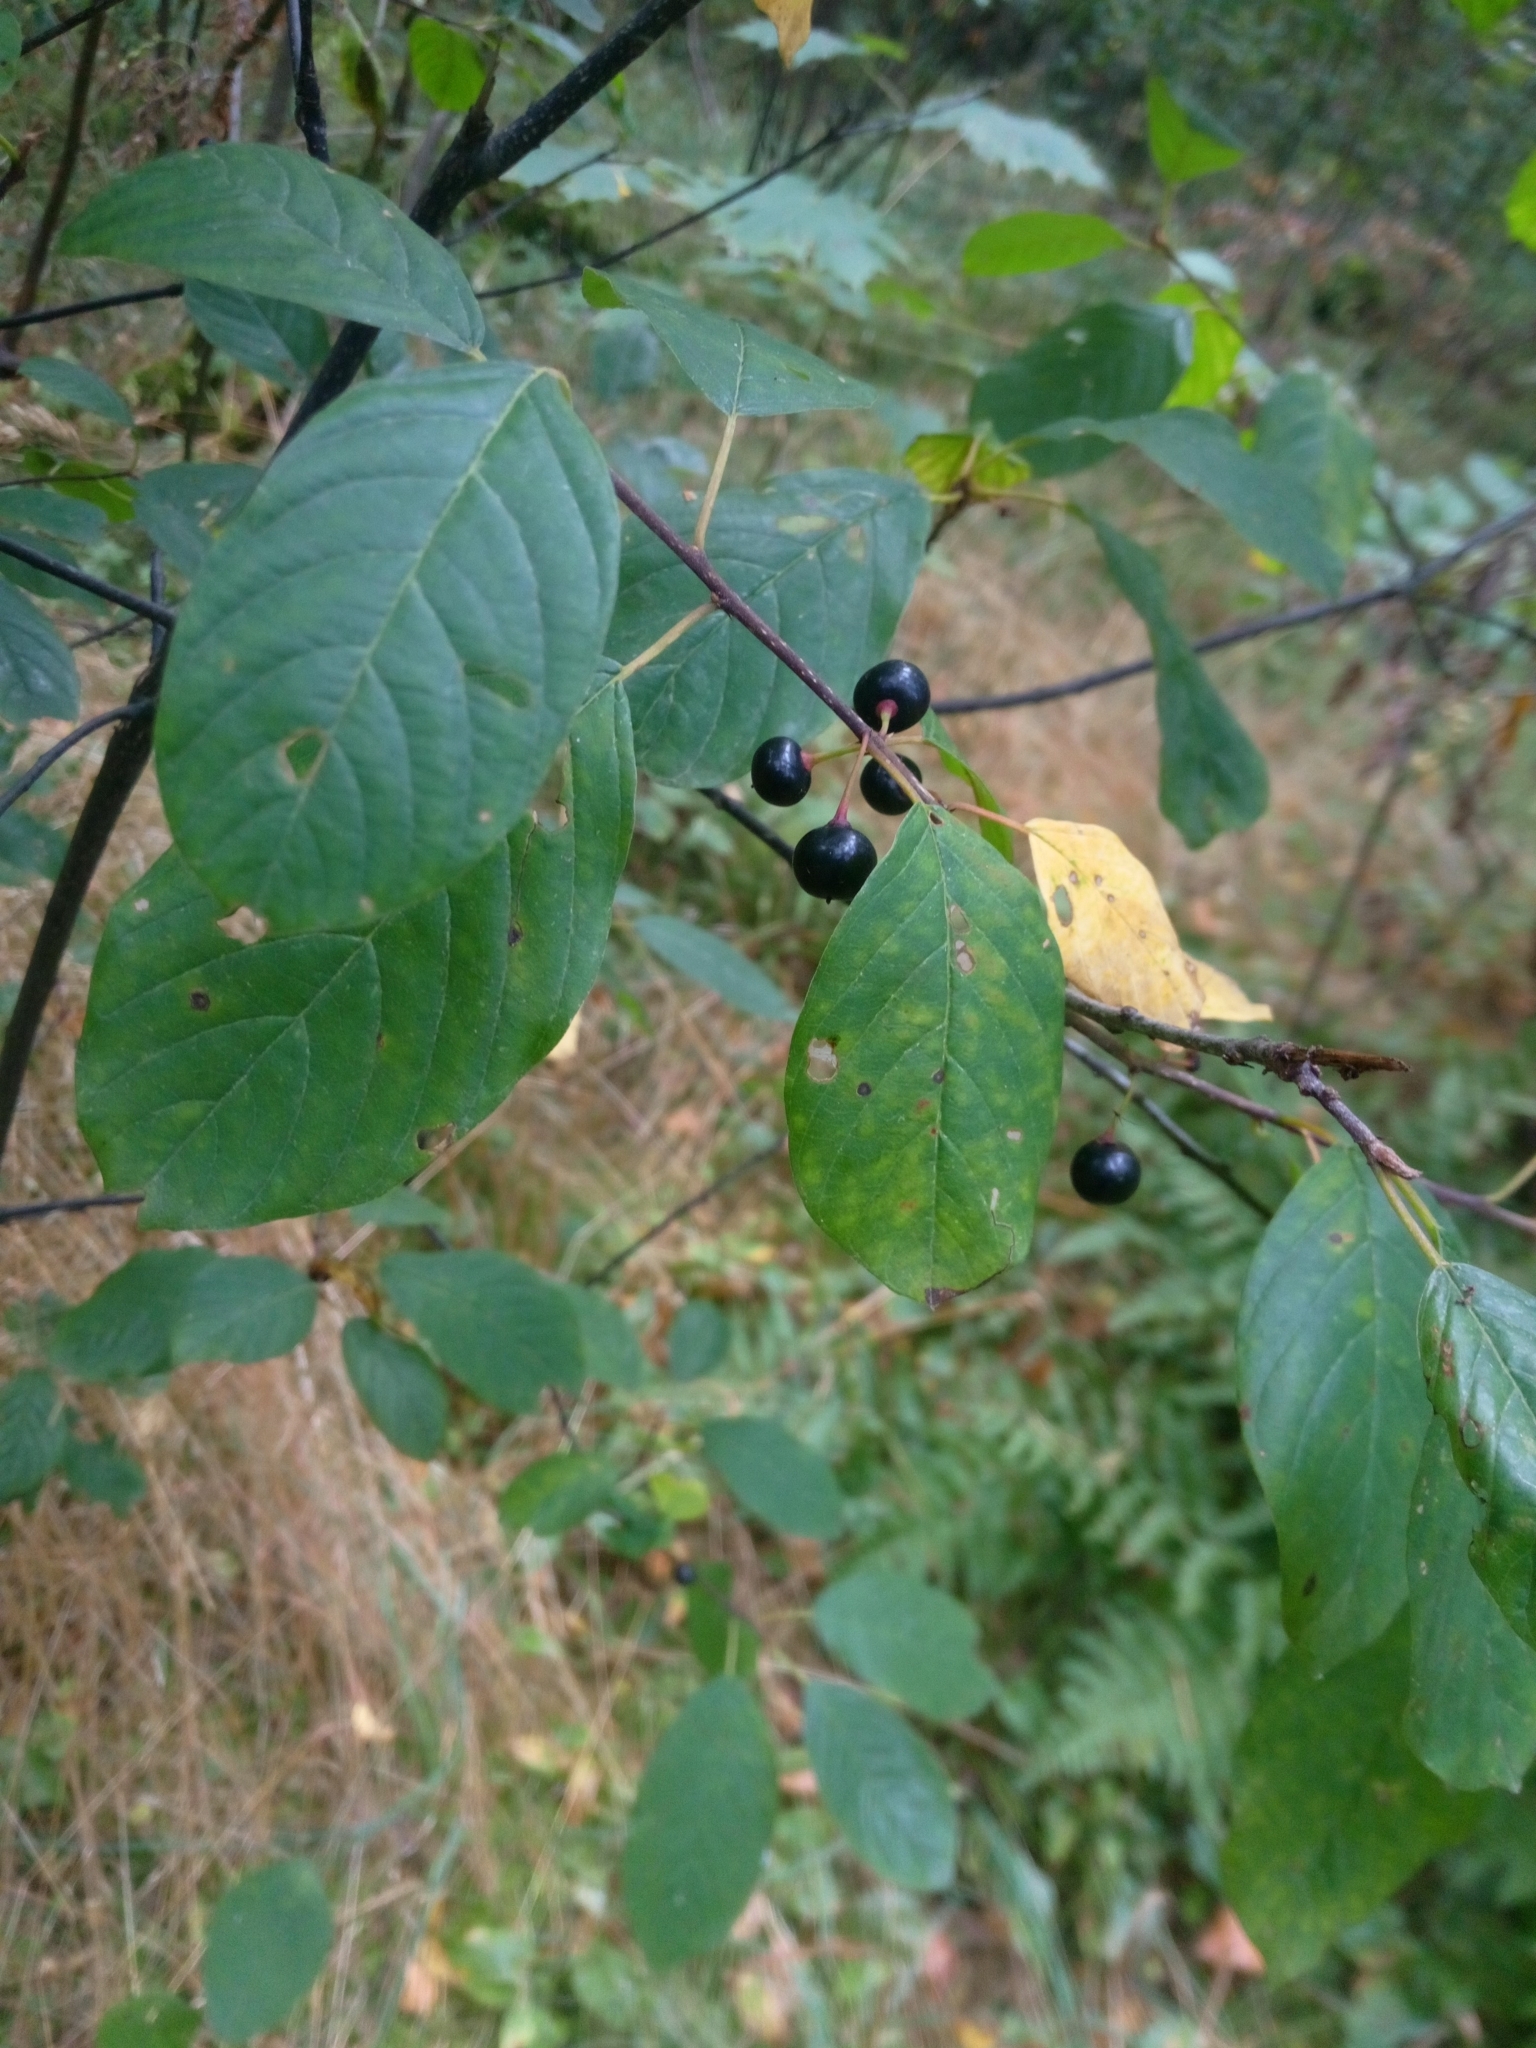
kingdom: Plantae
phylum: Tracheophyta
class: Magnoliopsida
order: Rosales
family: Rhamnaceae
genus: Frangula
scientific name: Frangula alnus
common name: Alder buckthorn
